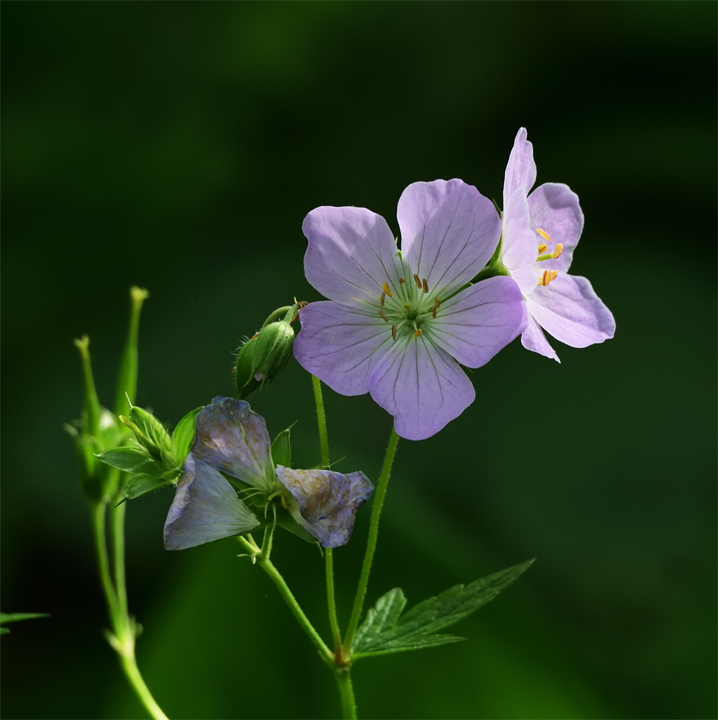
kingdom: Plantae
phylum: Tracheophyta
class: Magnoliopsida
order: Geraniales
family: Geraniaceae
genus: Geranium
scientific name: Geranium maculatum
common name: Spotted geranium
